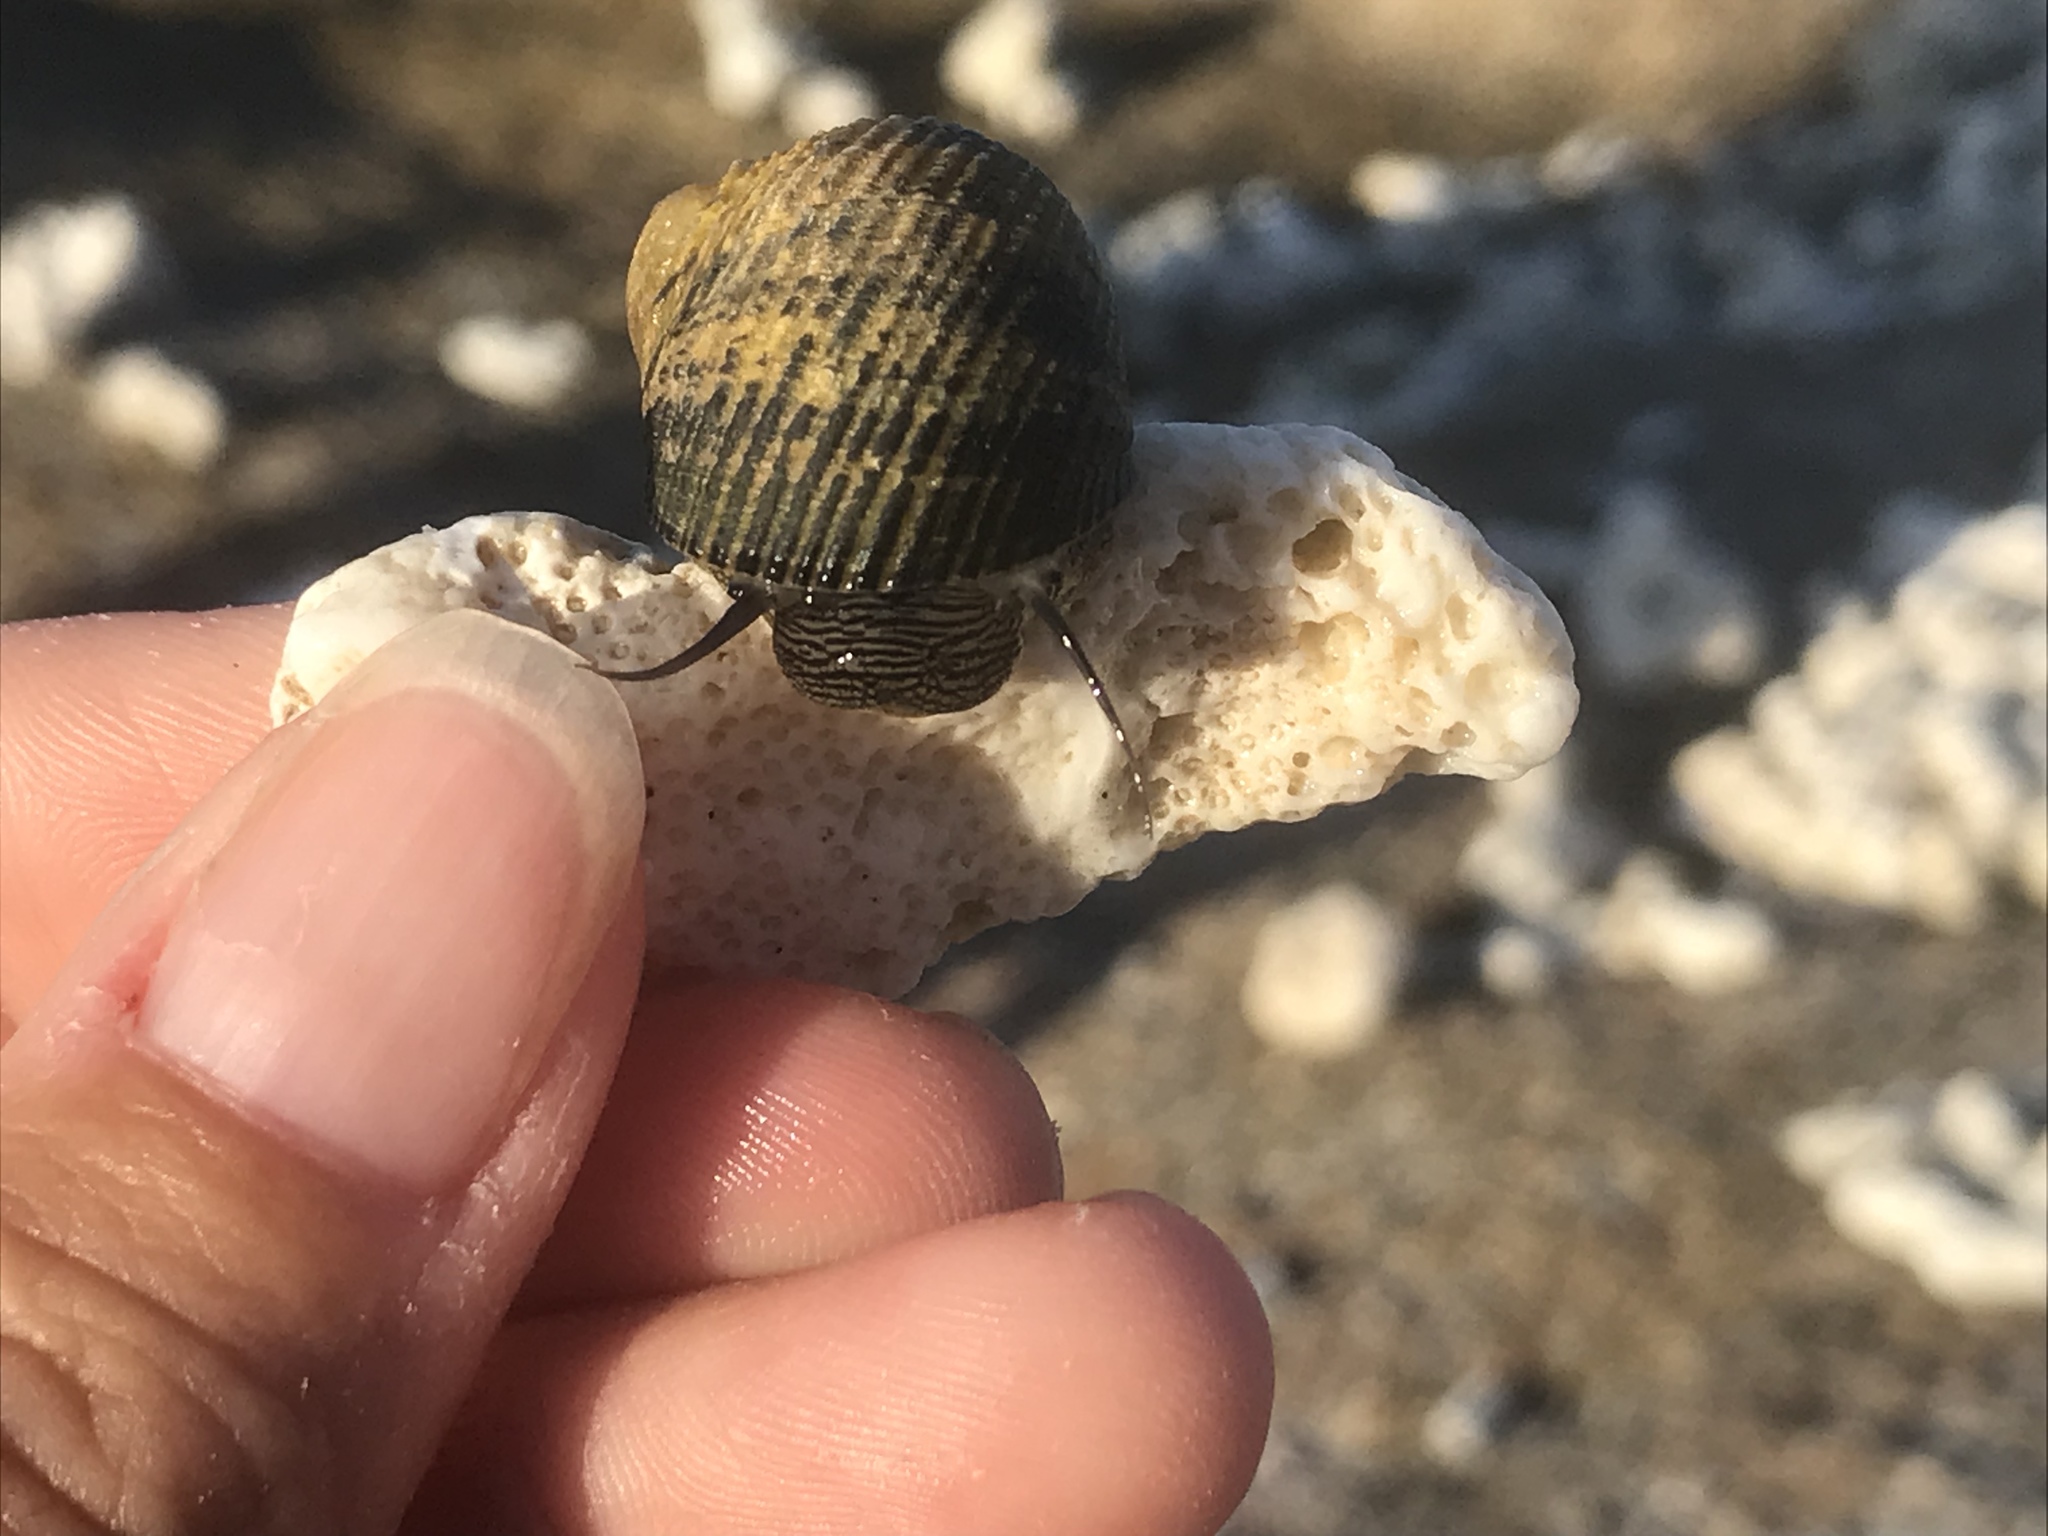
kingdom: Animalia
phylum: Mollusca
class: Gastropoda
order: Cycloneritida
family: Neritidae
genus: Nerita
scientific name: Nerita scabricosta
